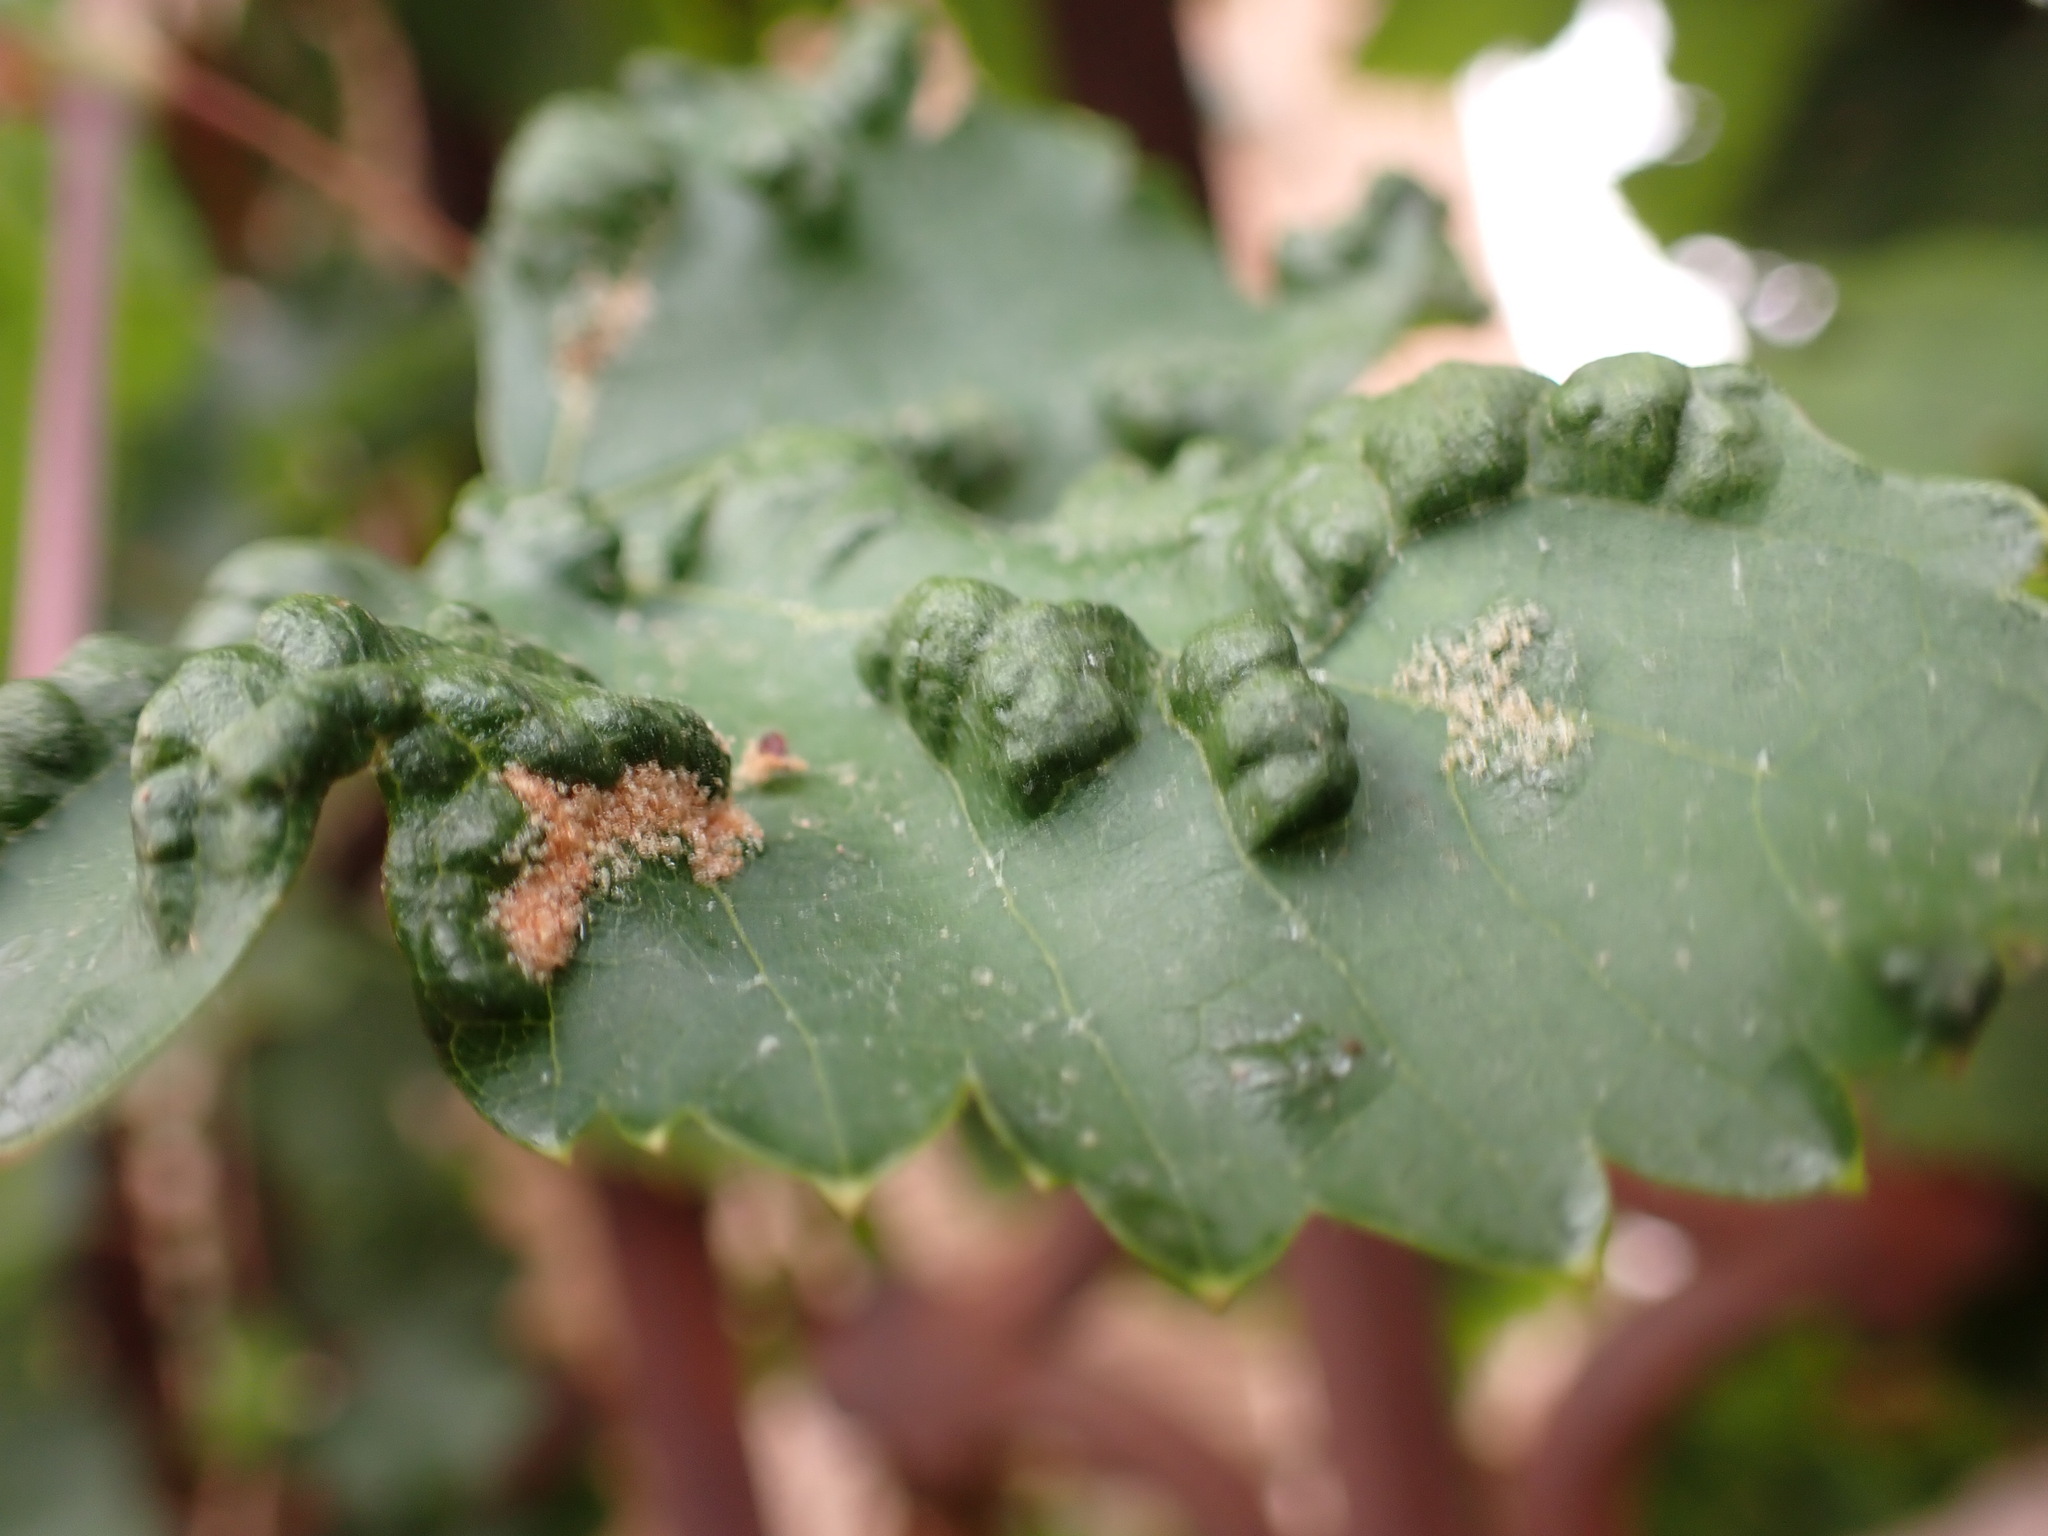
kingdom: Animalia
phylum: Arthropoda
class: Arachnida
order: Trombidiformes
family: Eriophyidae
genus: Colomerus
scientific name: Colomerus vitis
